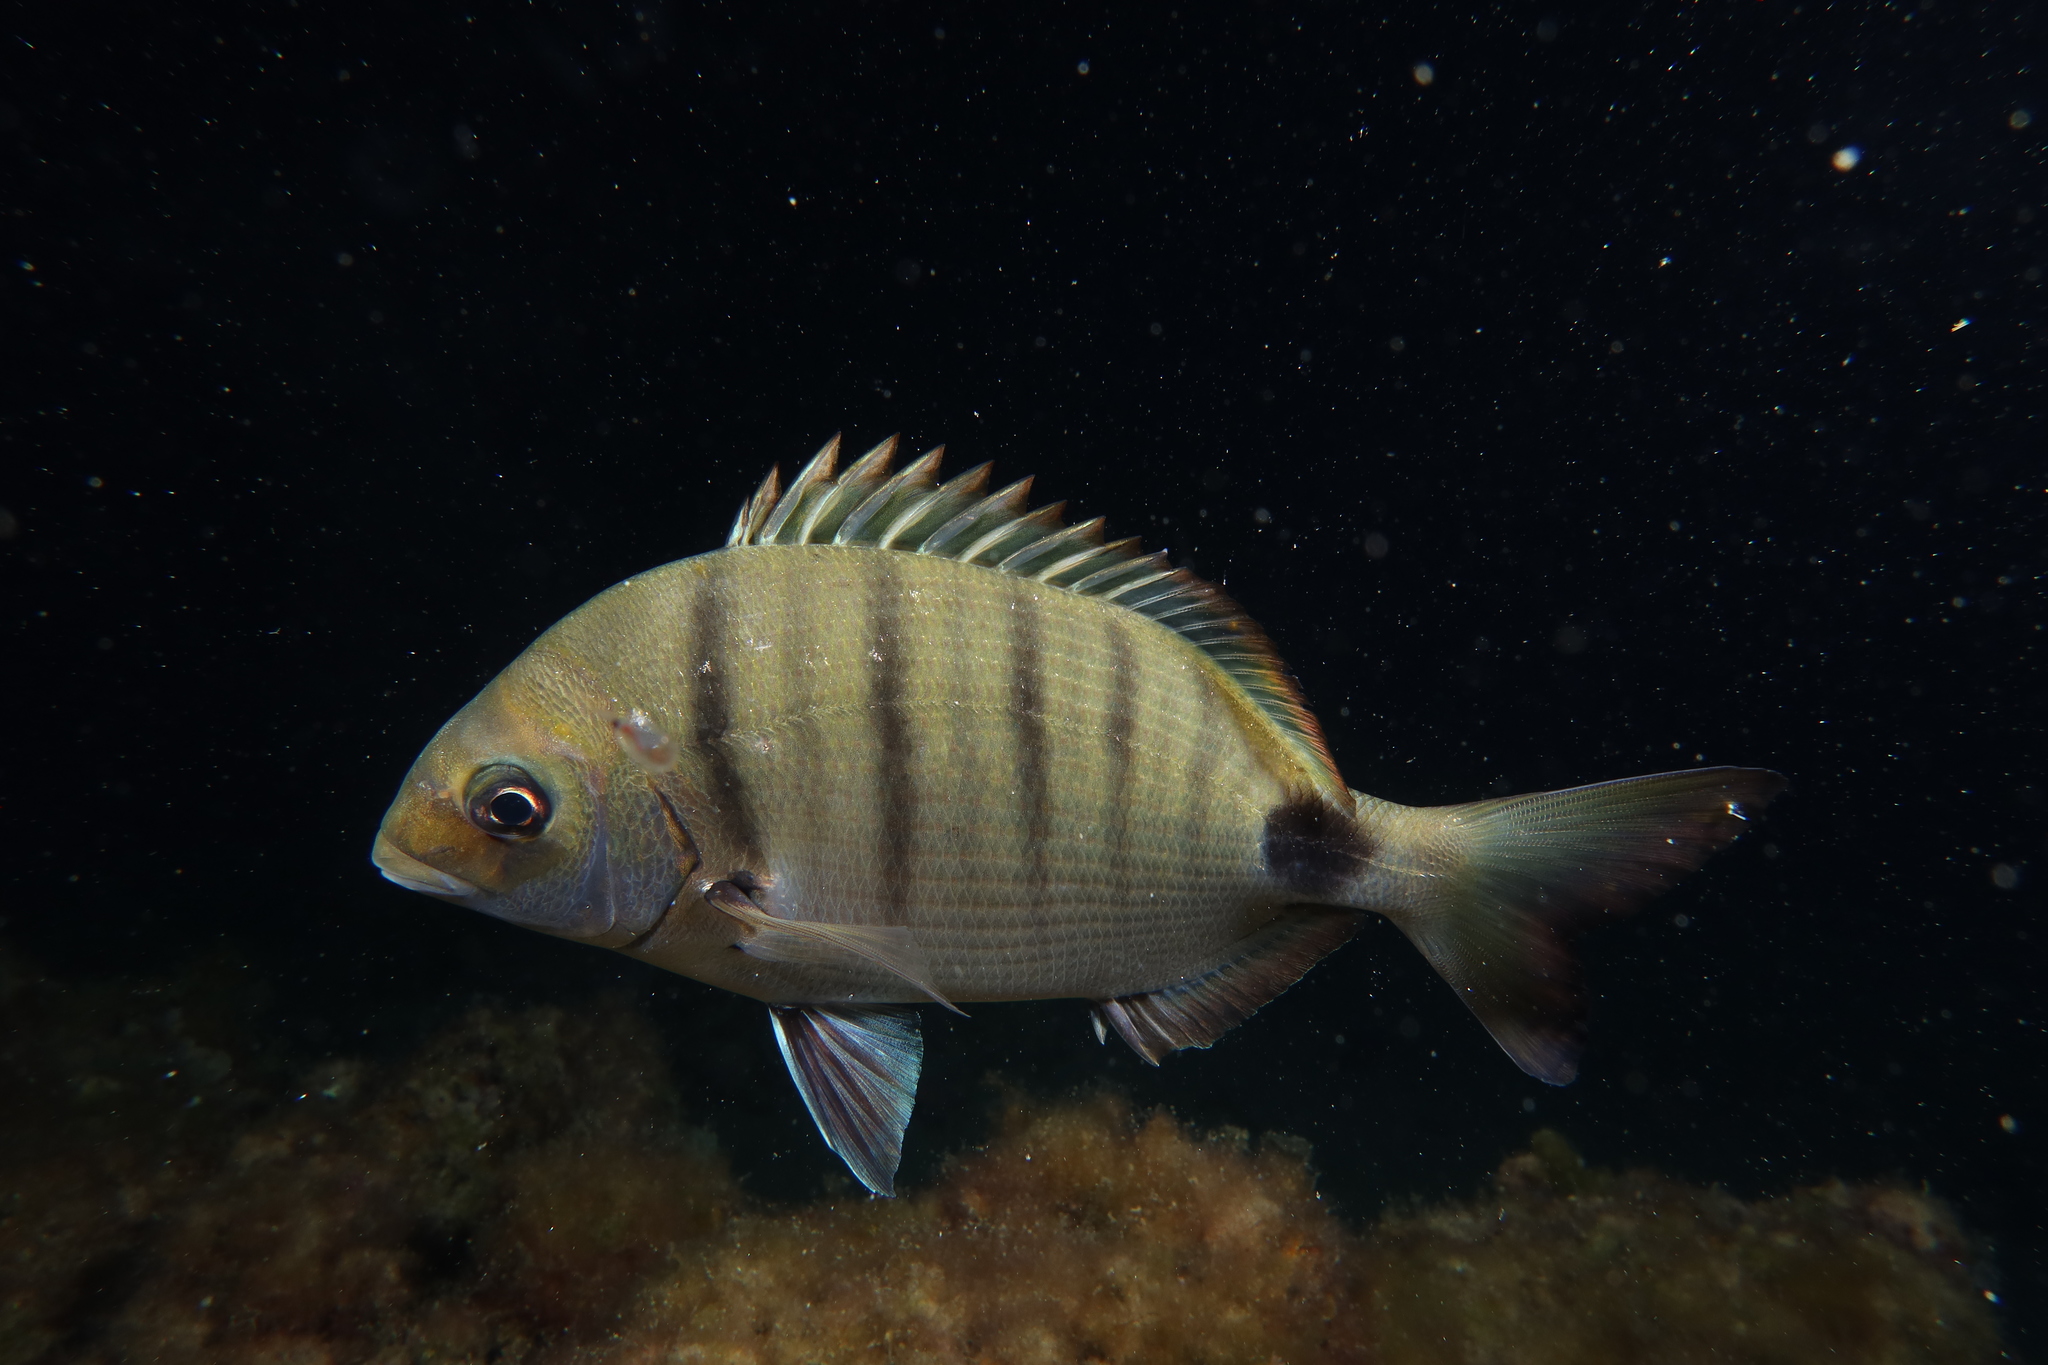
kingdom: Animalia
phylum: Chordata
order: Perciformes
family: Sparidae
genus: Diplodus
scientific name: Diplodus cadenati
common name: Moroccan white seabream
